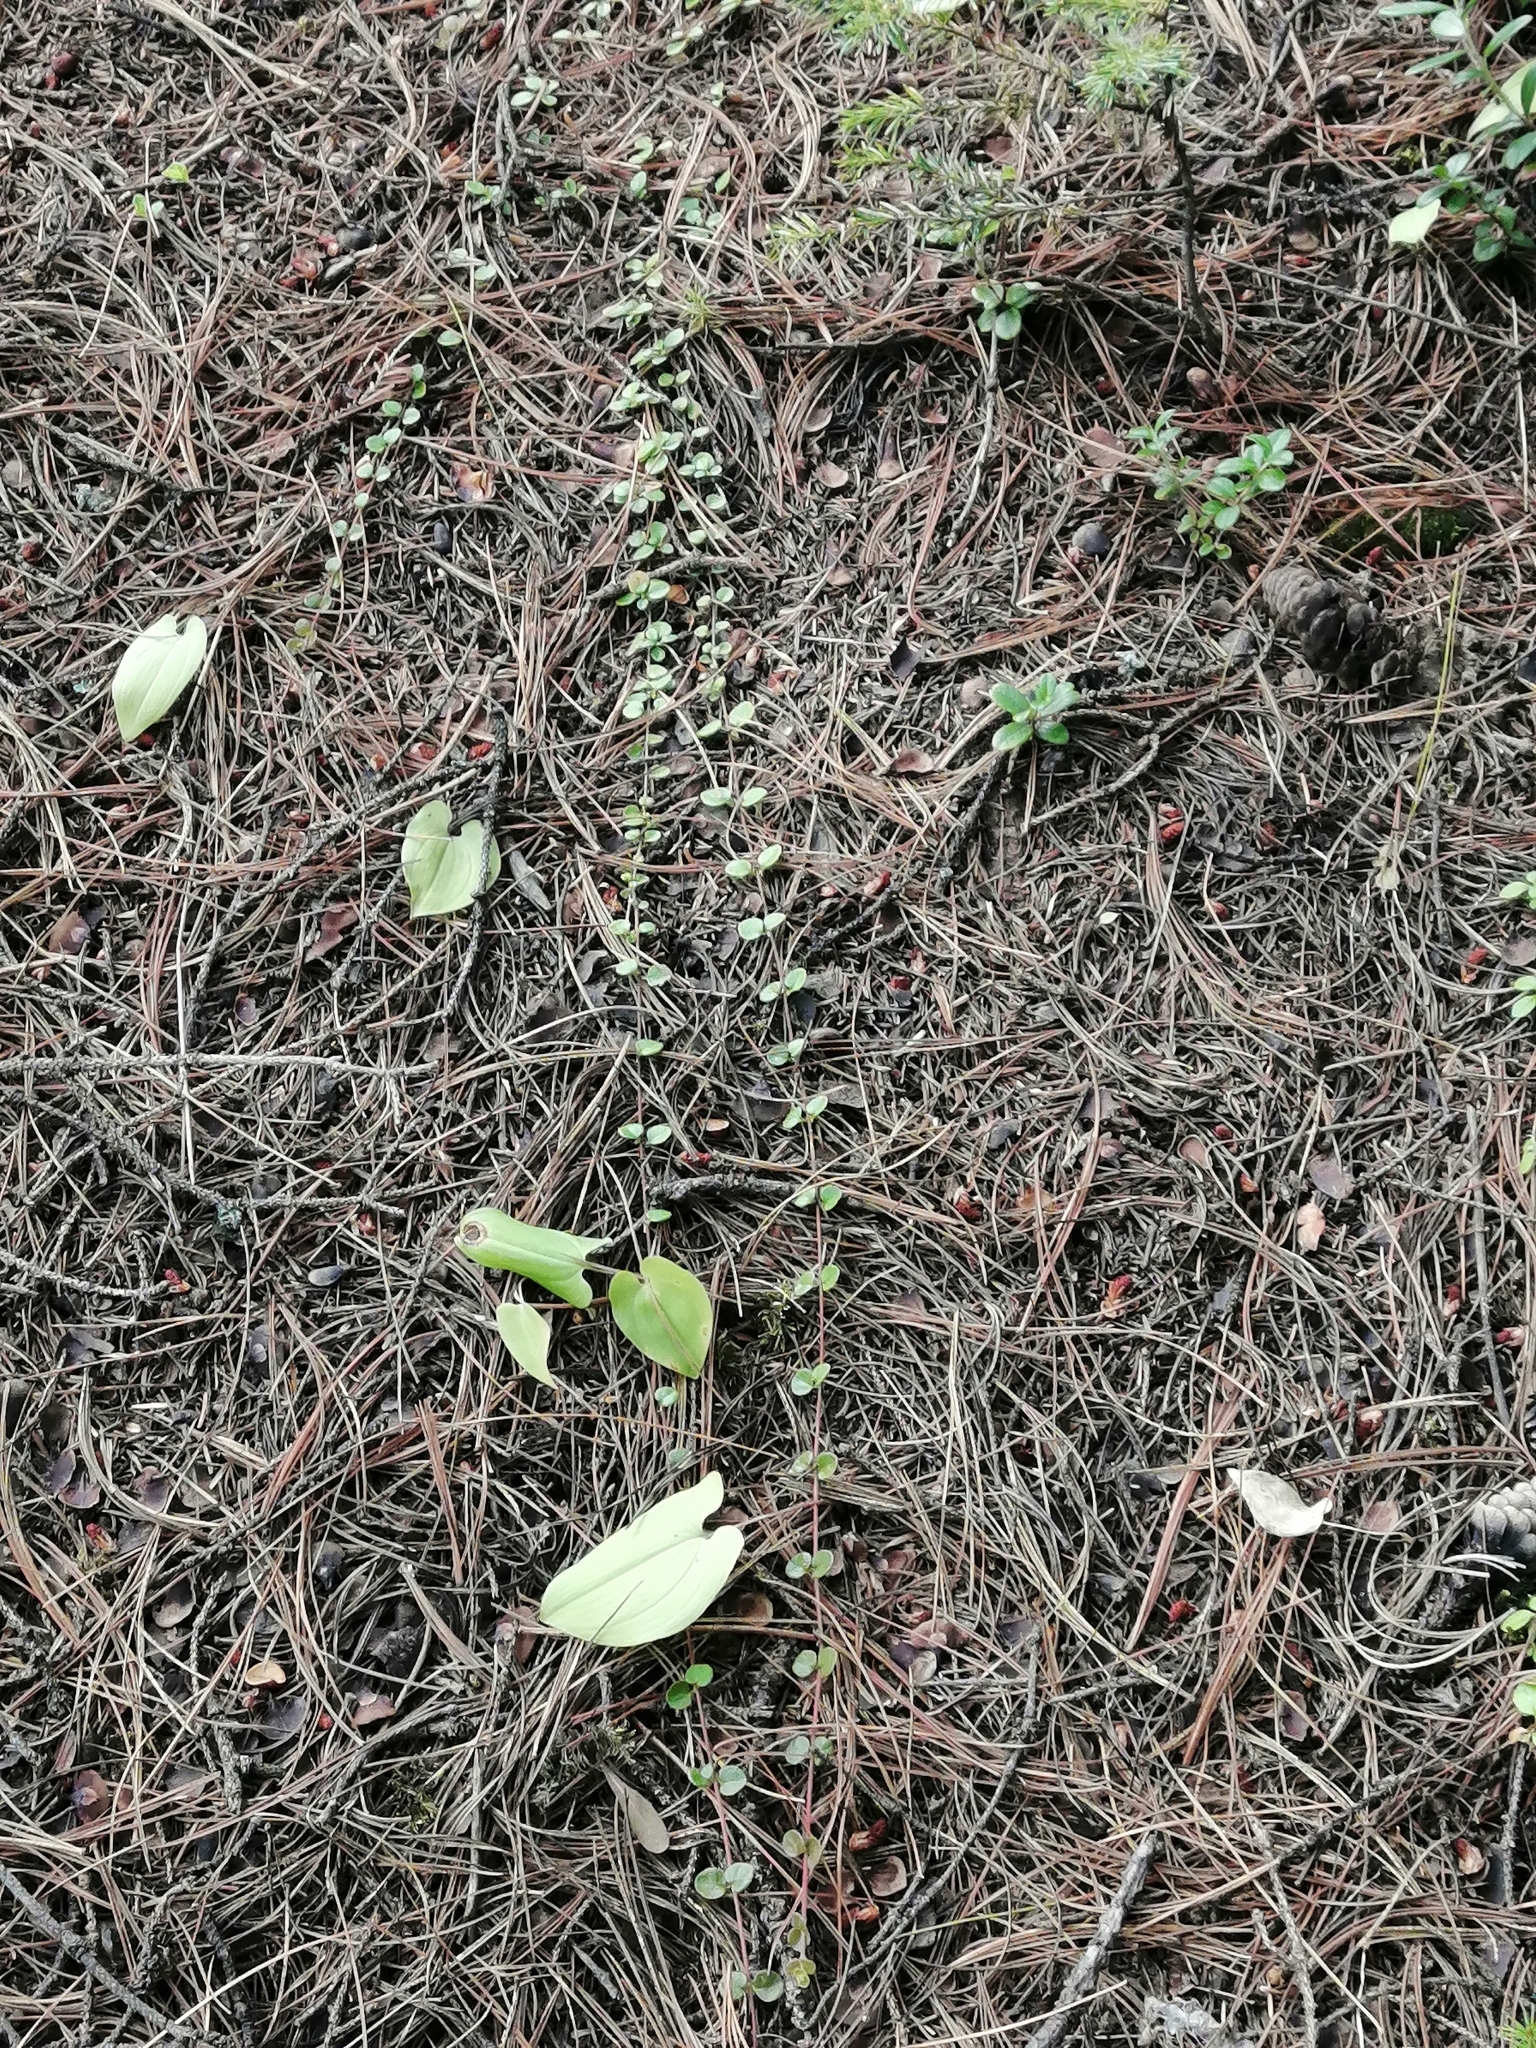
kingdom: Plantae
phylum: Tracheophyta
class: Magnoliopsida
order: Dipsacales
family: Caprifoliaceae
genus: Linnaea
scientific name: Linnaea borealis
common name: Twinflower
